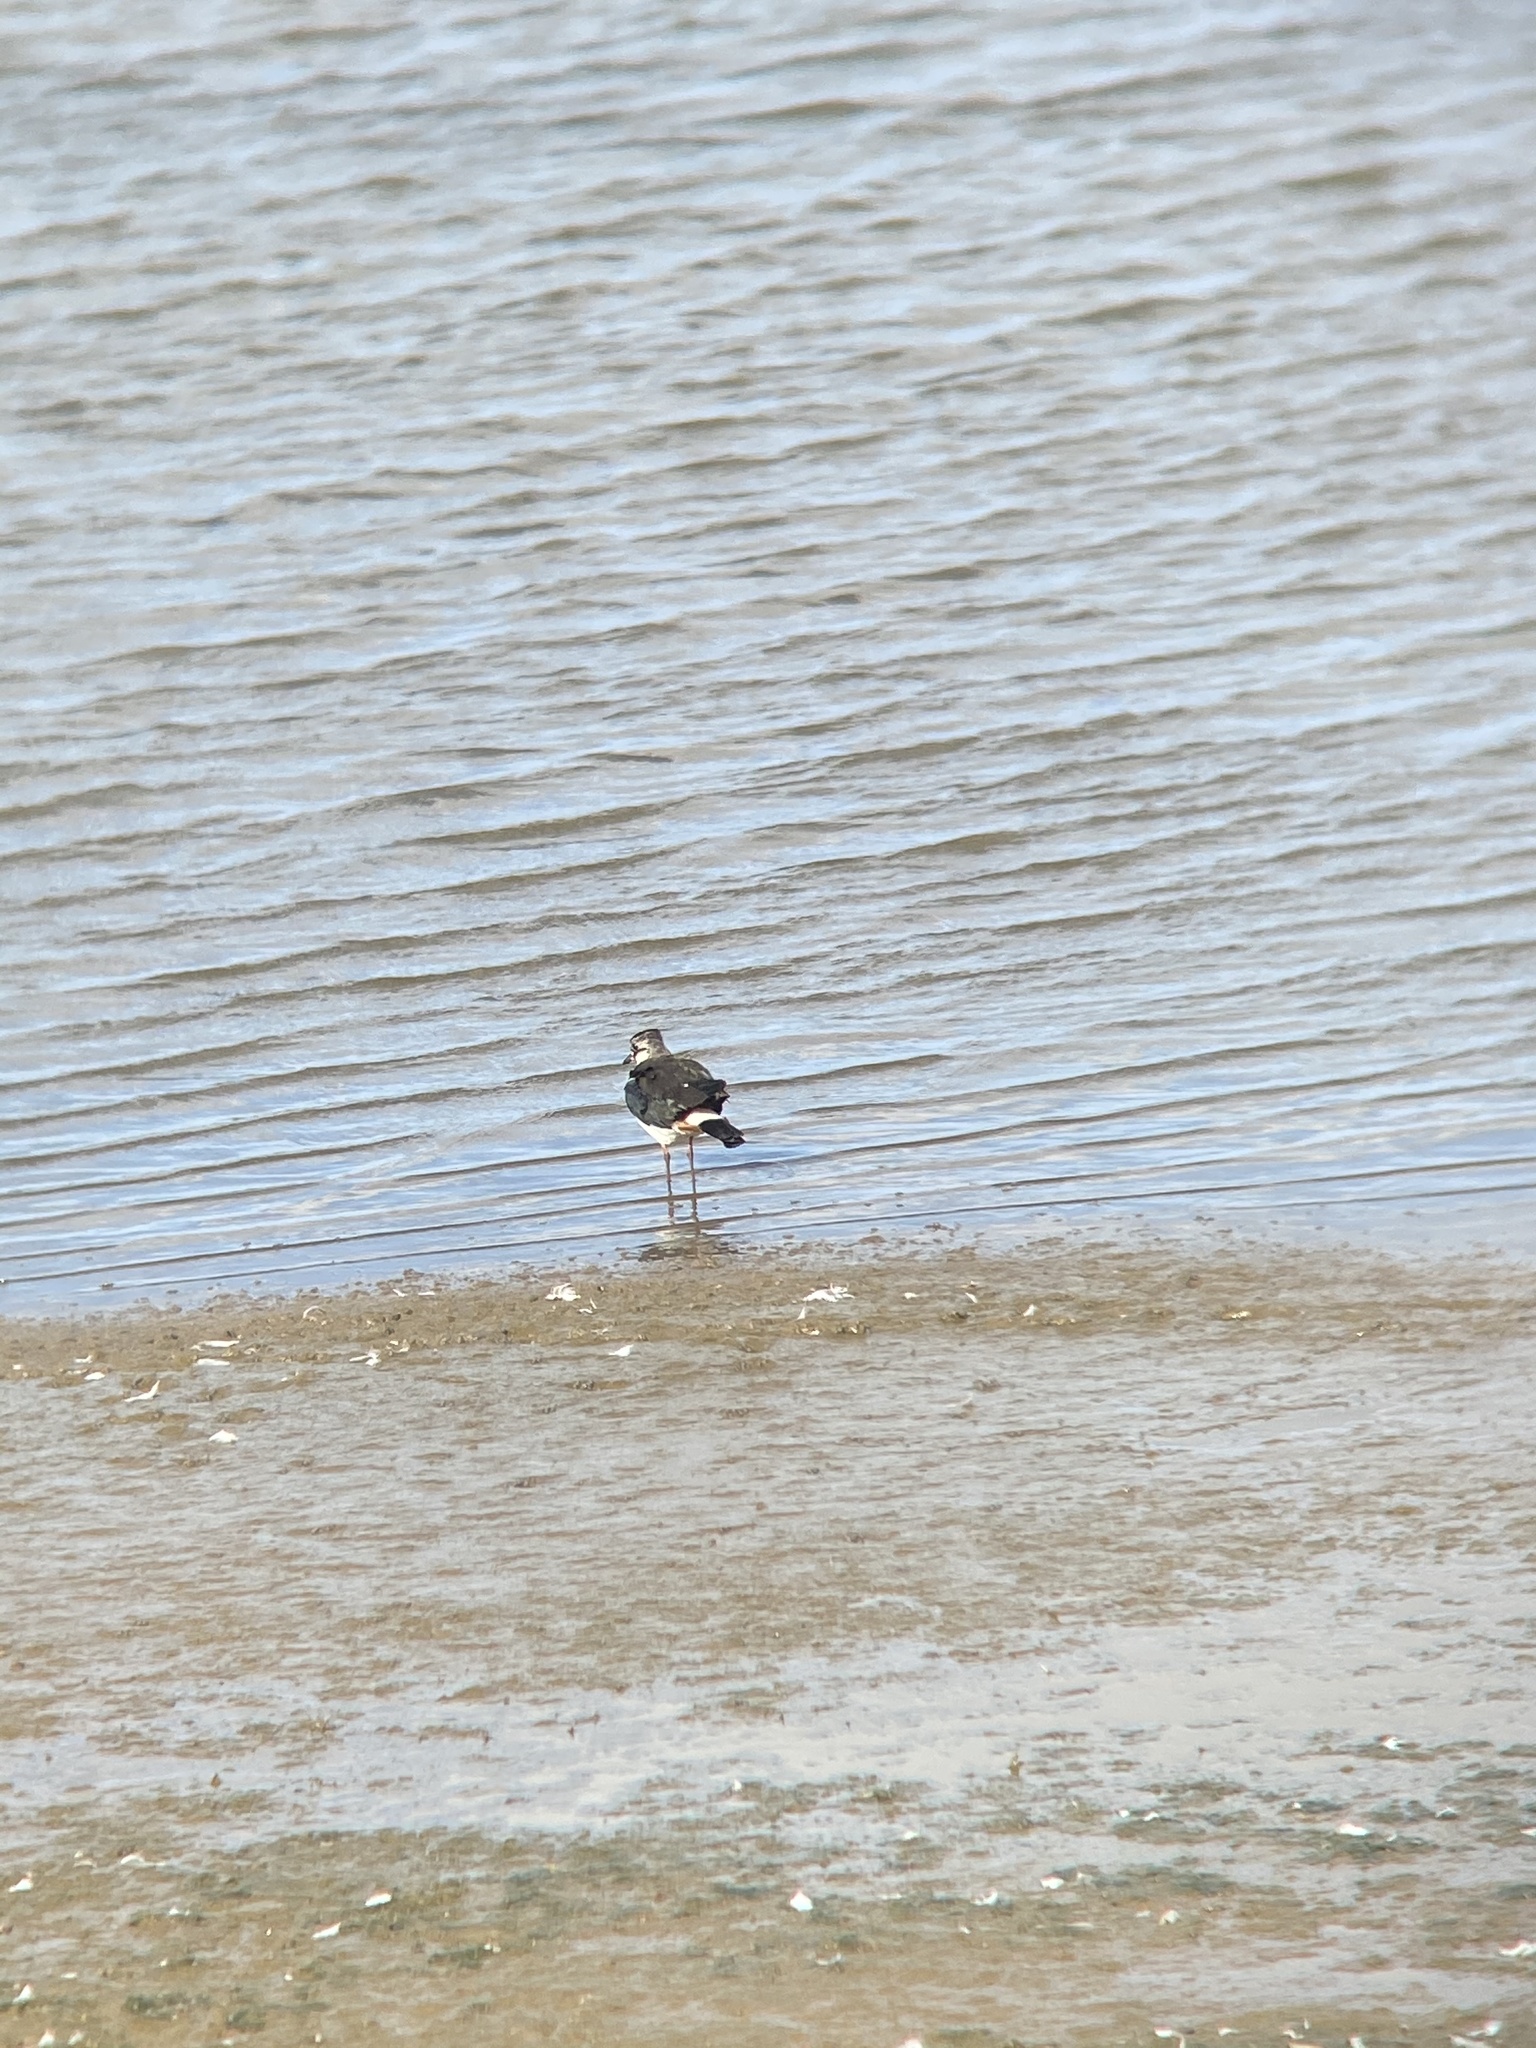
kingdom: Animalia
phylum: Chordata
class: Aves
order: Charadriiformes
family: Charadriidae
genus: Vanellus
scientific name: Vanellus vanellus
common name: Northern lapwing
